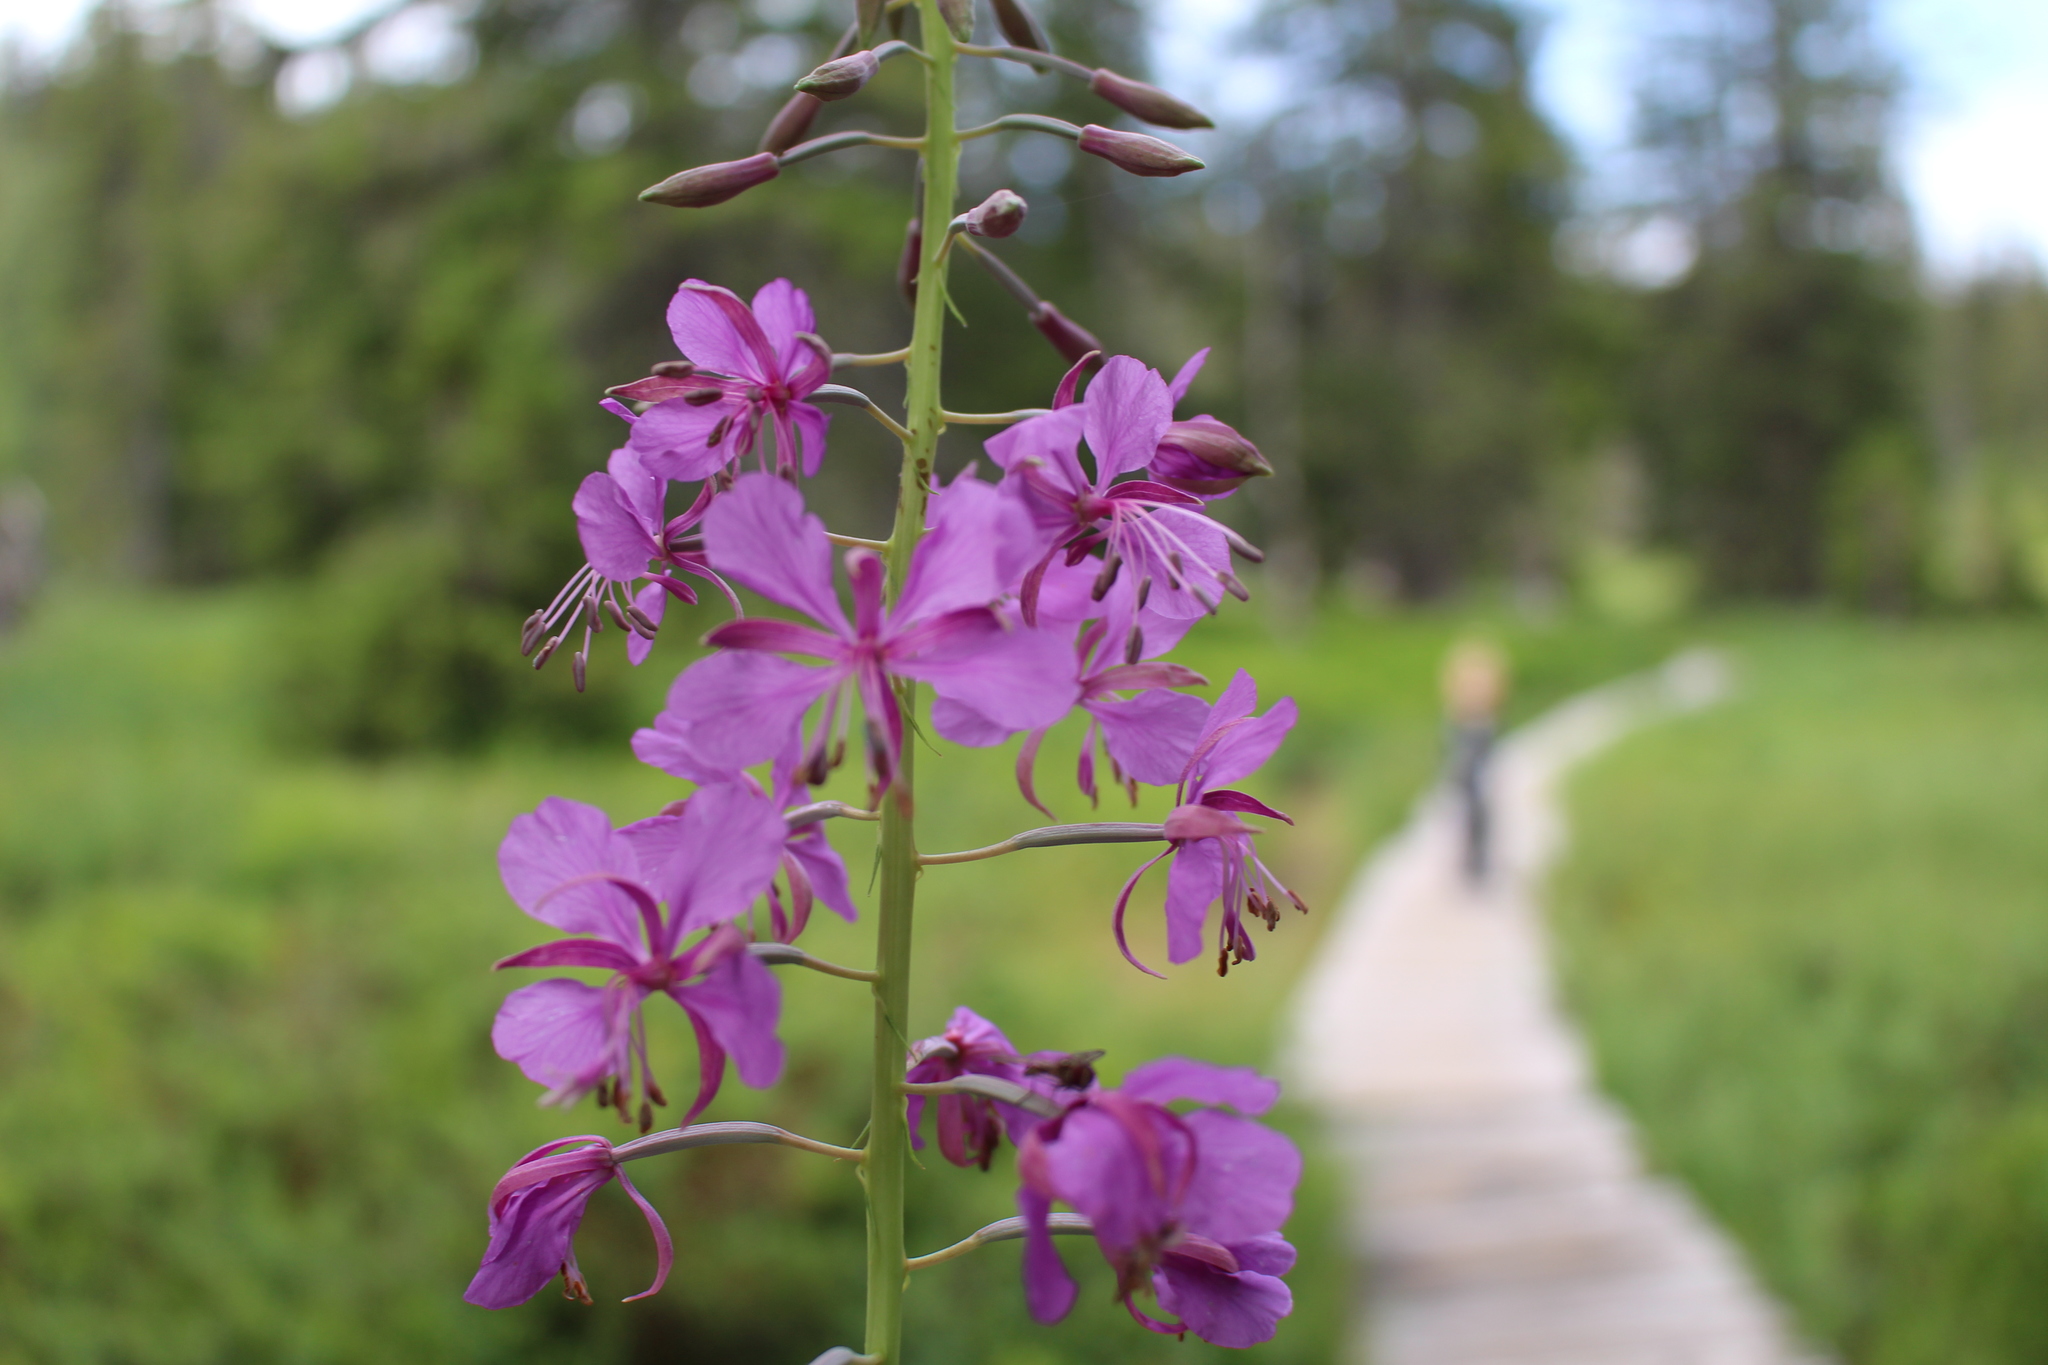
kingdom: Plantae
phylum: Tracheophyta
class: Magnoliopsida
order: Myrtales
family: Onagraceae
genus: Chamaenerion
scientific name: Chamaenerion angustifolium
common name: Fireweed
